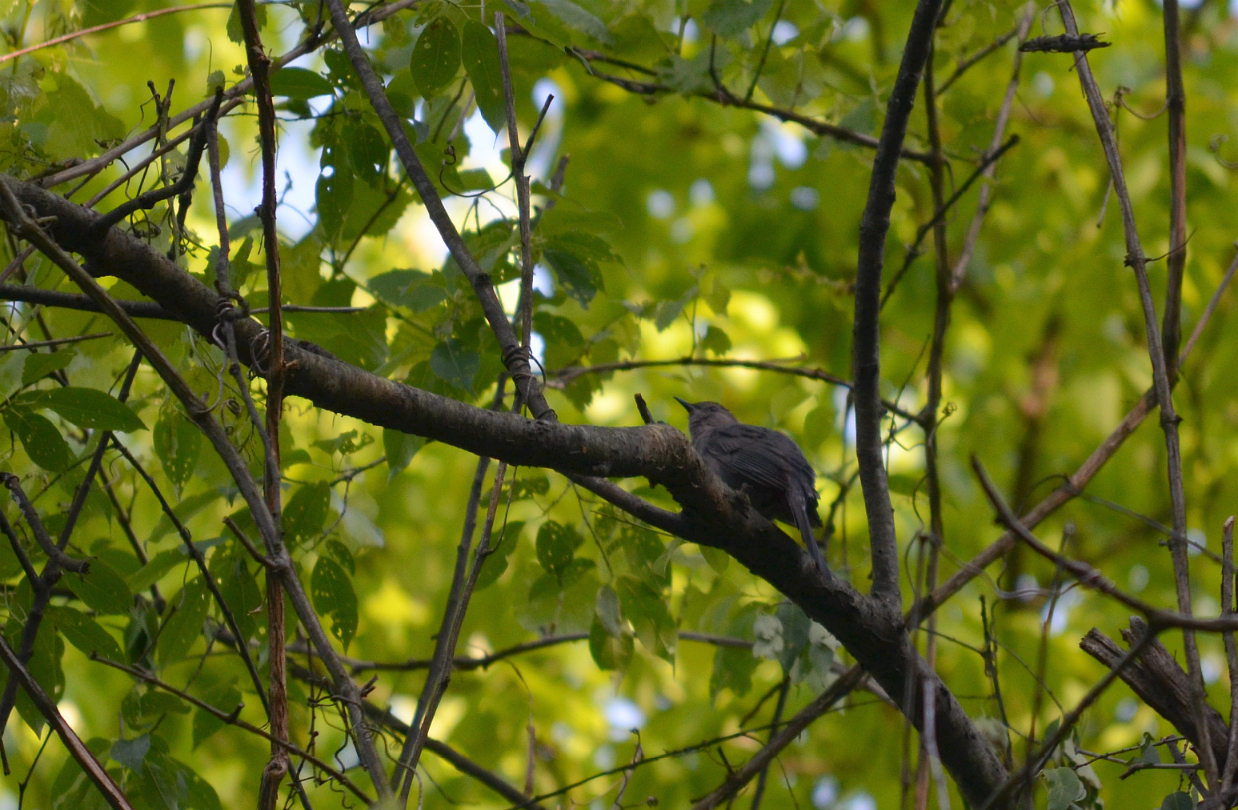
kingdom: Animalia
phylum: Chordata
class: Aves
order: Passeriformes
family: Mimidae
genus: Dumetella
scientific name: Dumetella carolinensis
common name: Gray catbird
